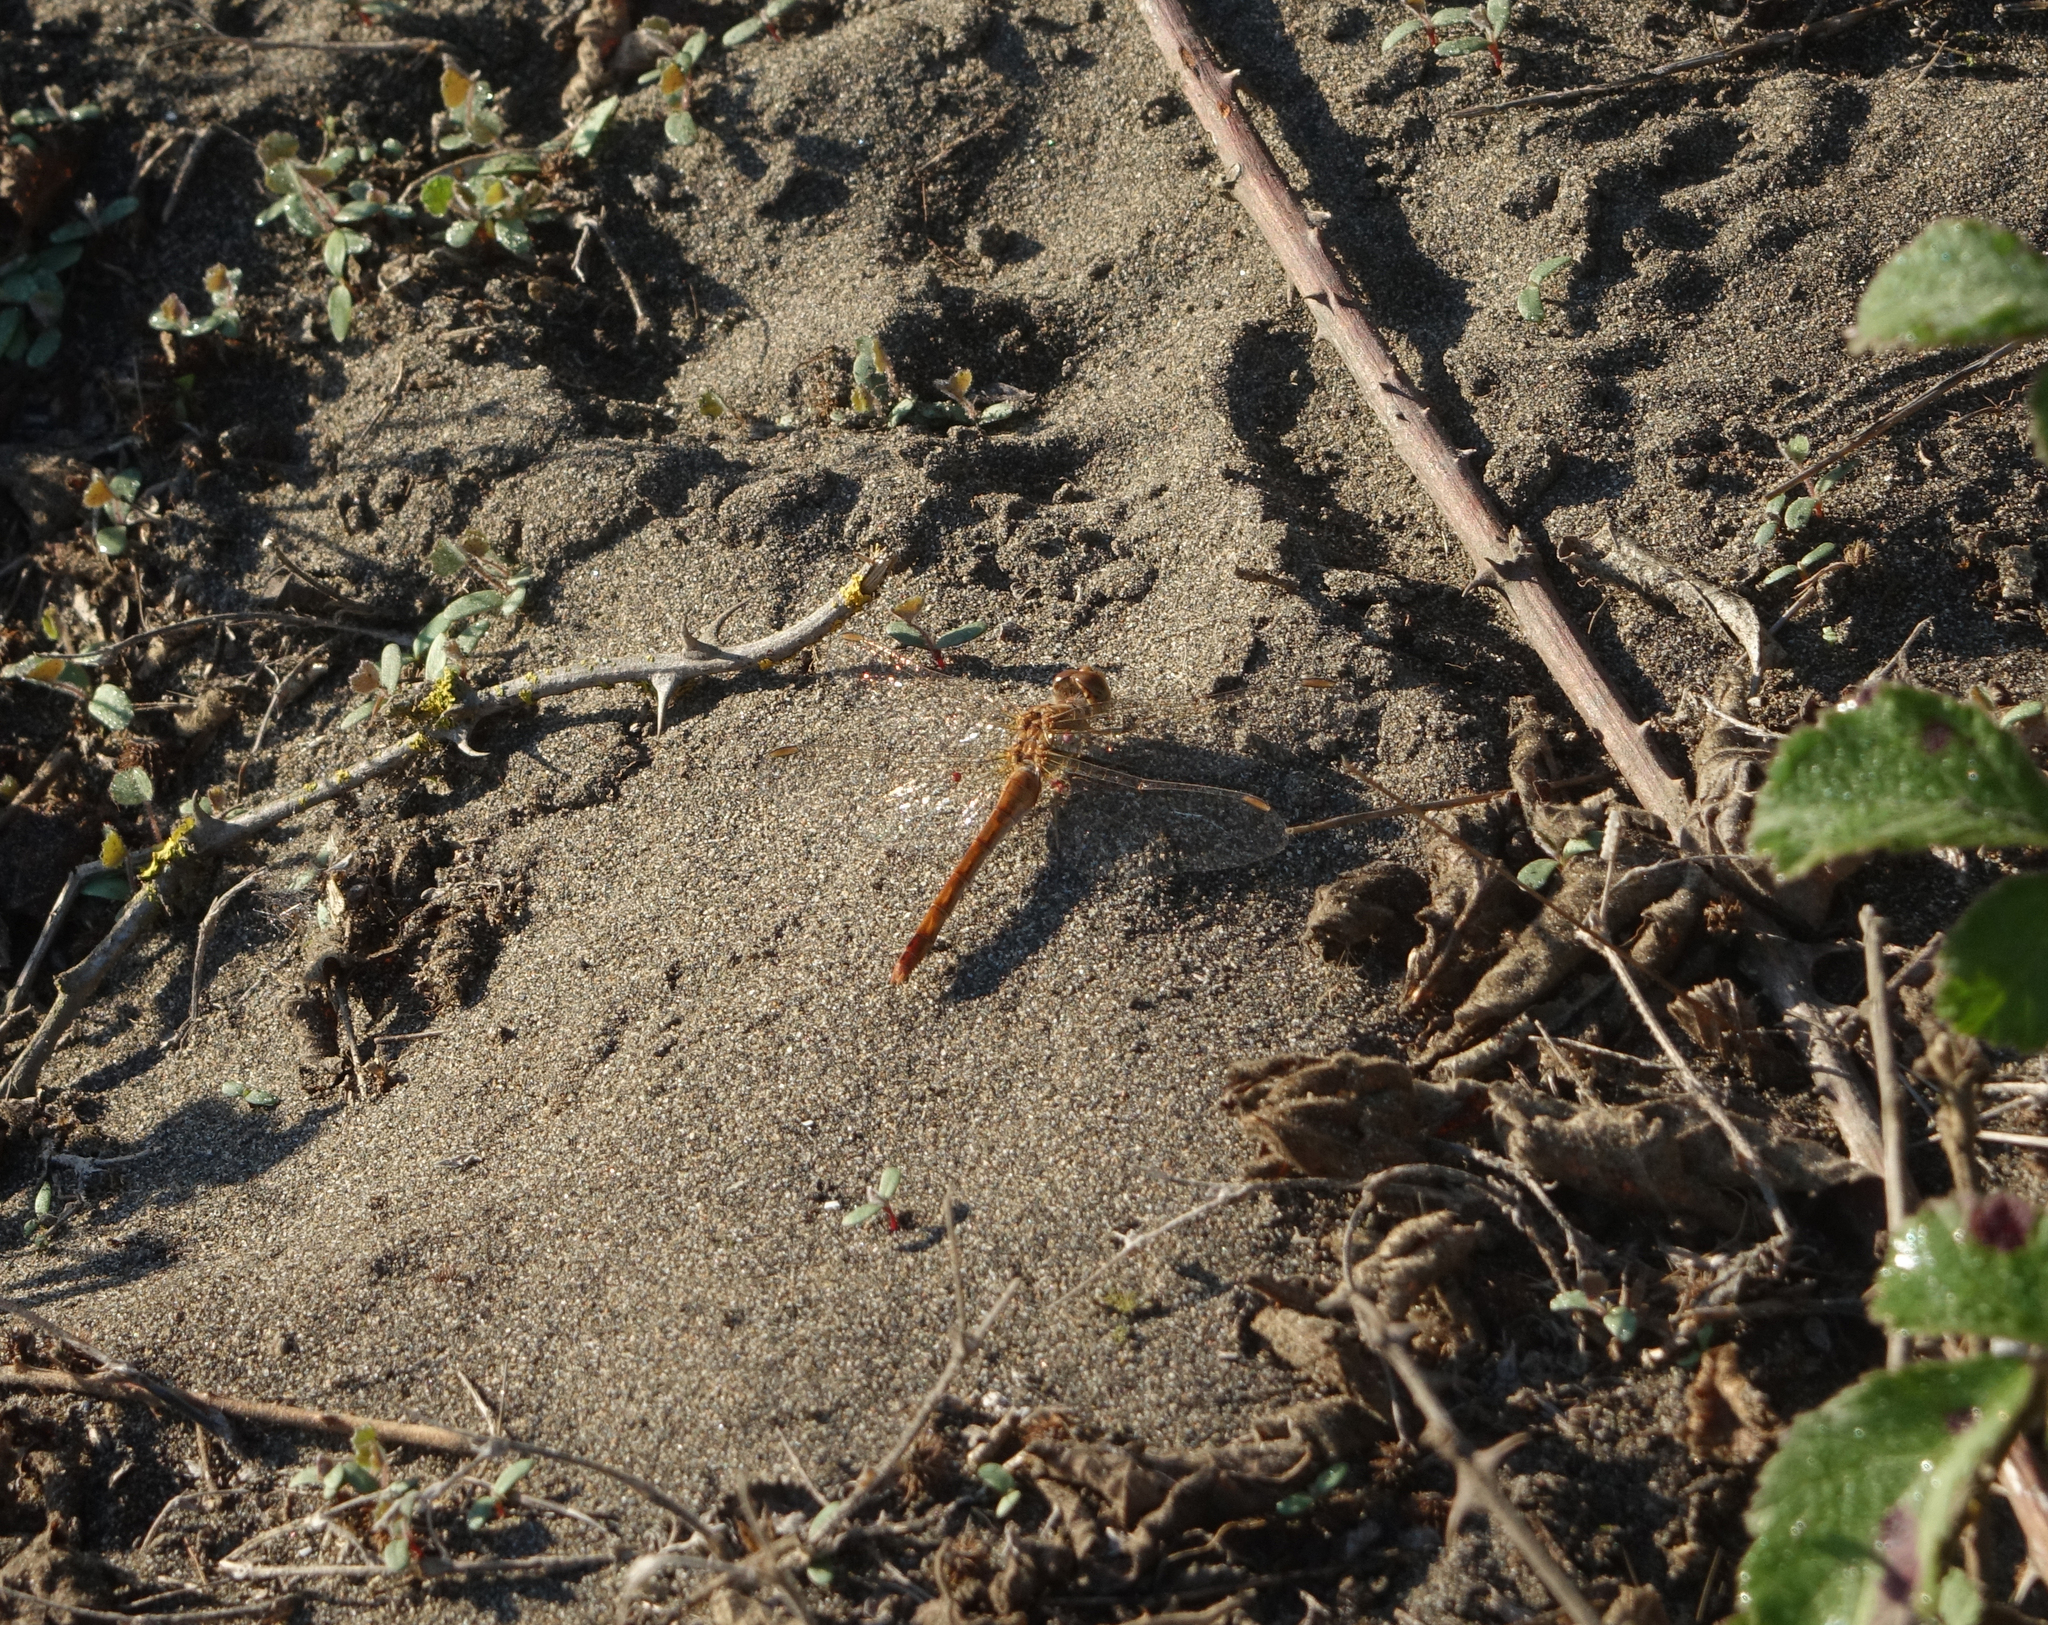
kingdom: Animalia
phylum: Arthropoda
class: Insecta
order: Odonata
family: Libellulidae
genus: Sympetrum
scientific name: Sympetrum meridionale
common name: Southern darter
